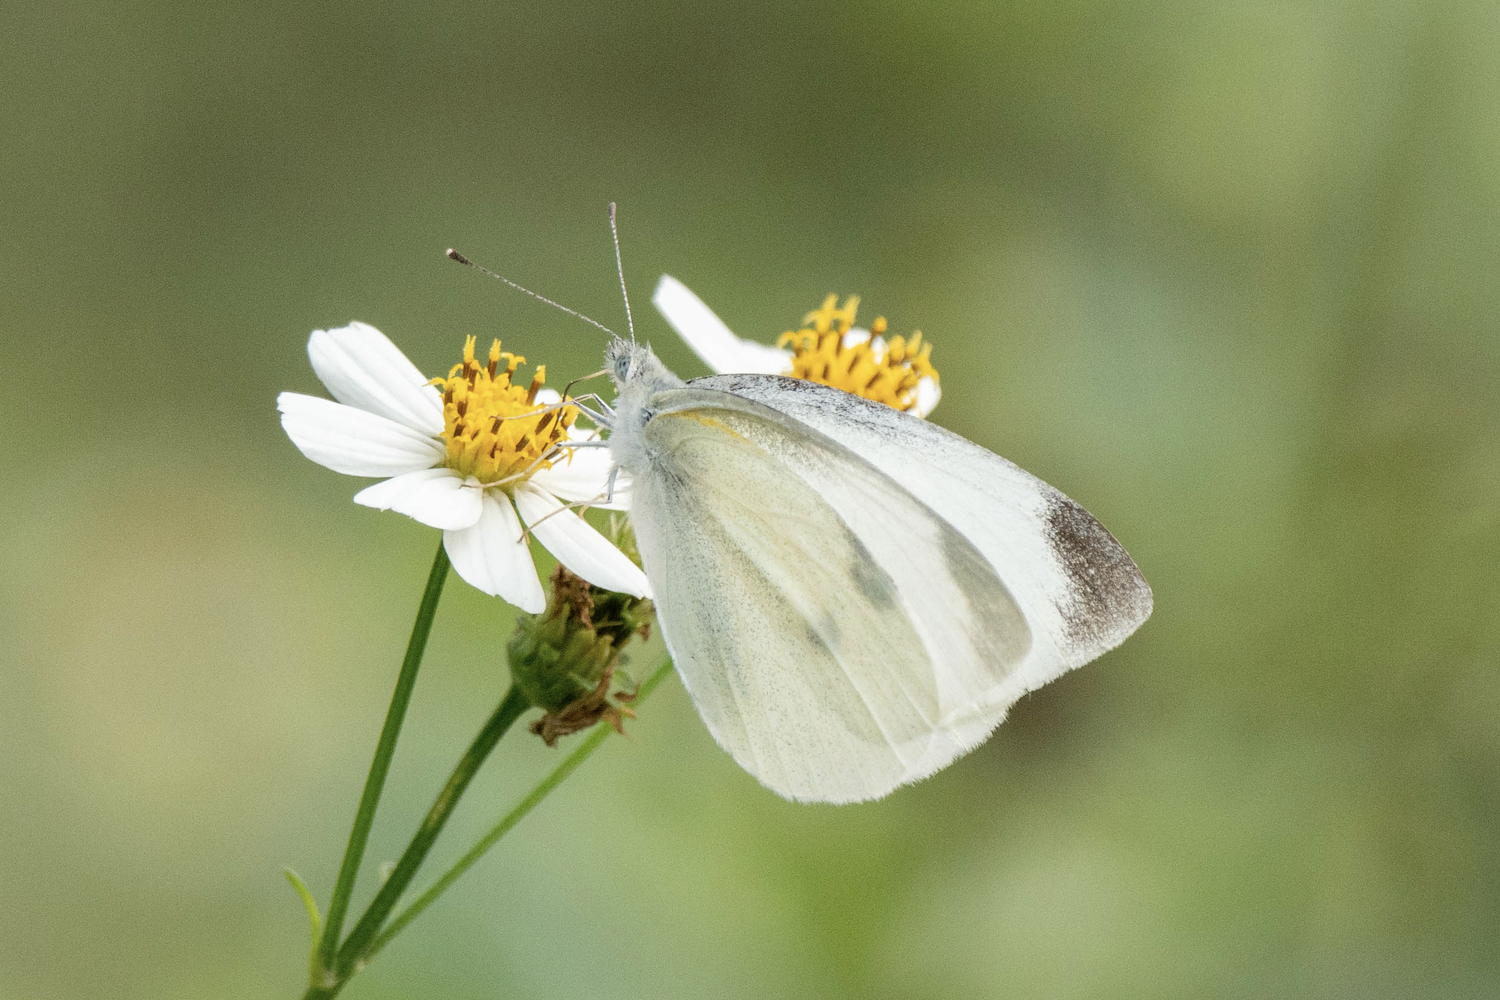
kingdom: Animalia
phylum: Arthropoda
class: Insecta
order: Lepidoptera
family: Pieridae
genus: Pieris
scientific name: Pieris rapae
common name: Small white
